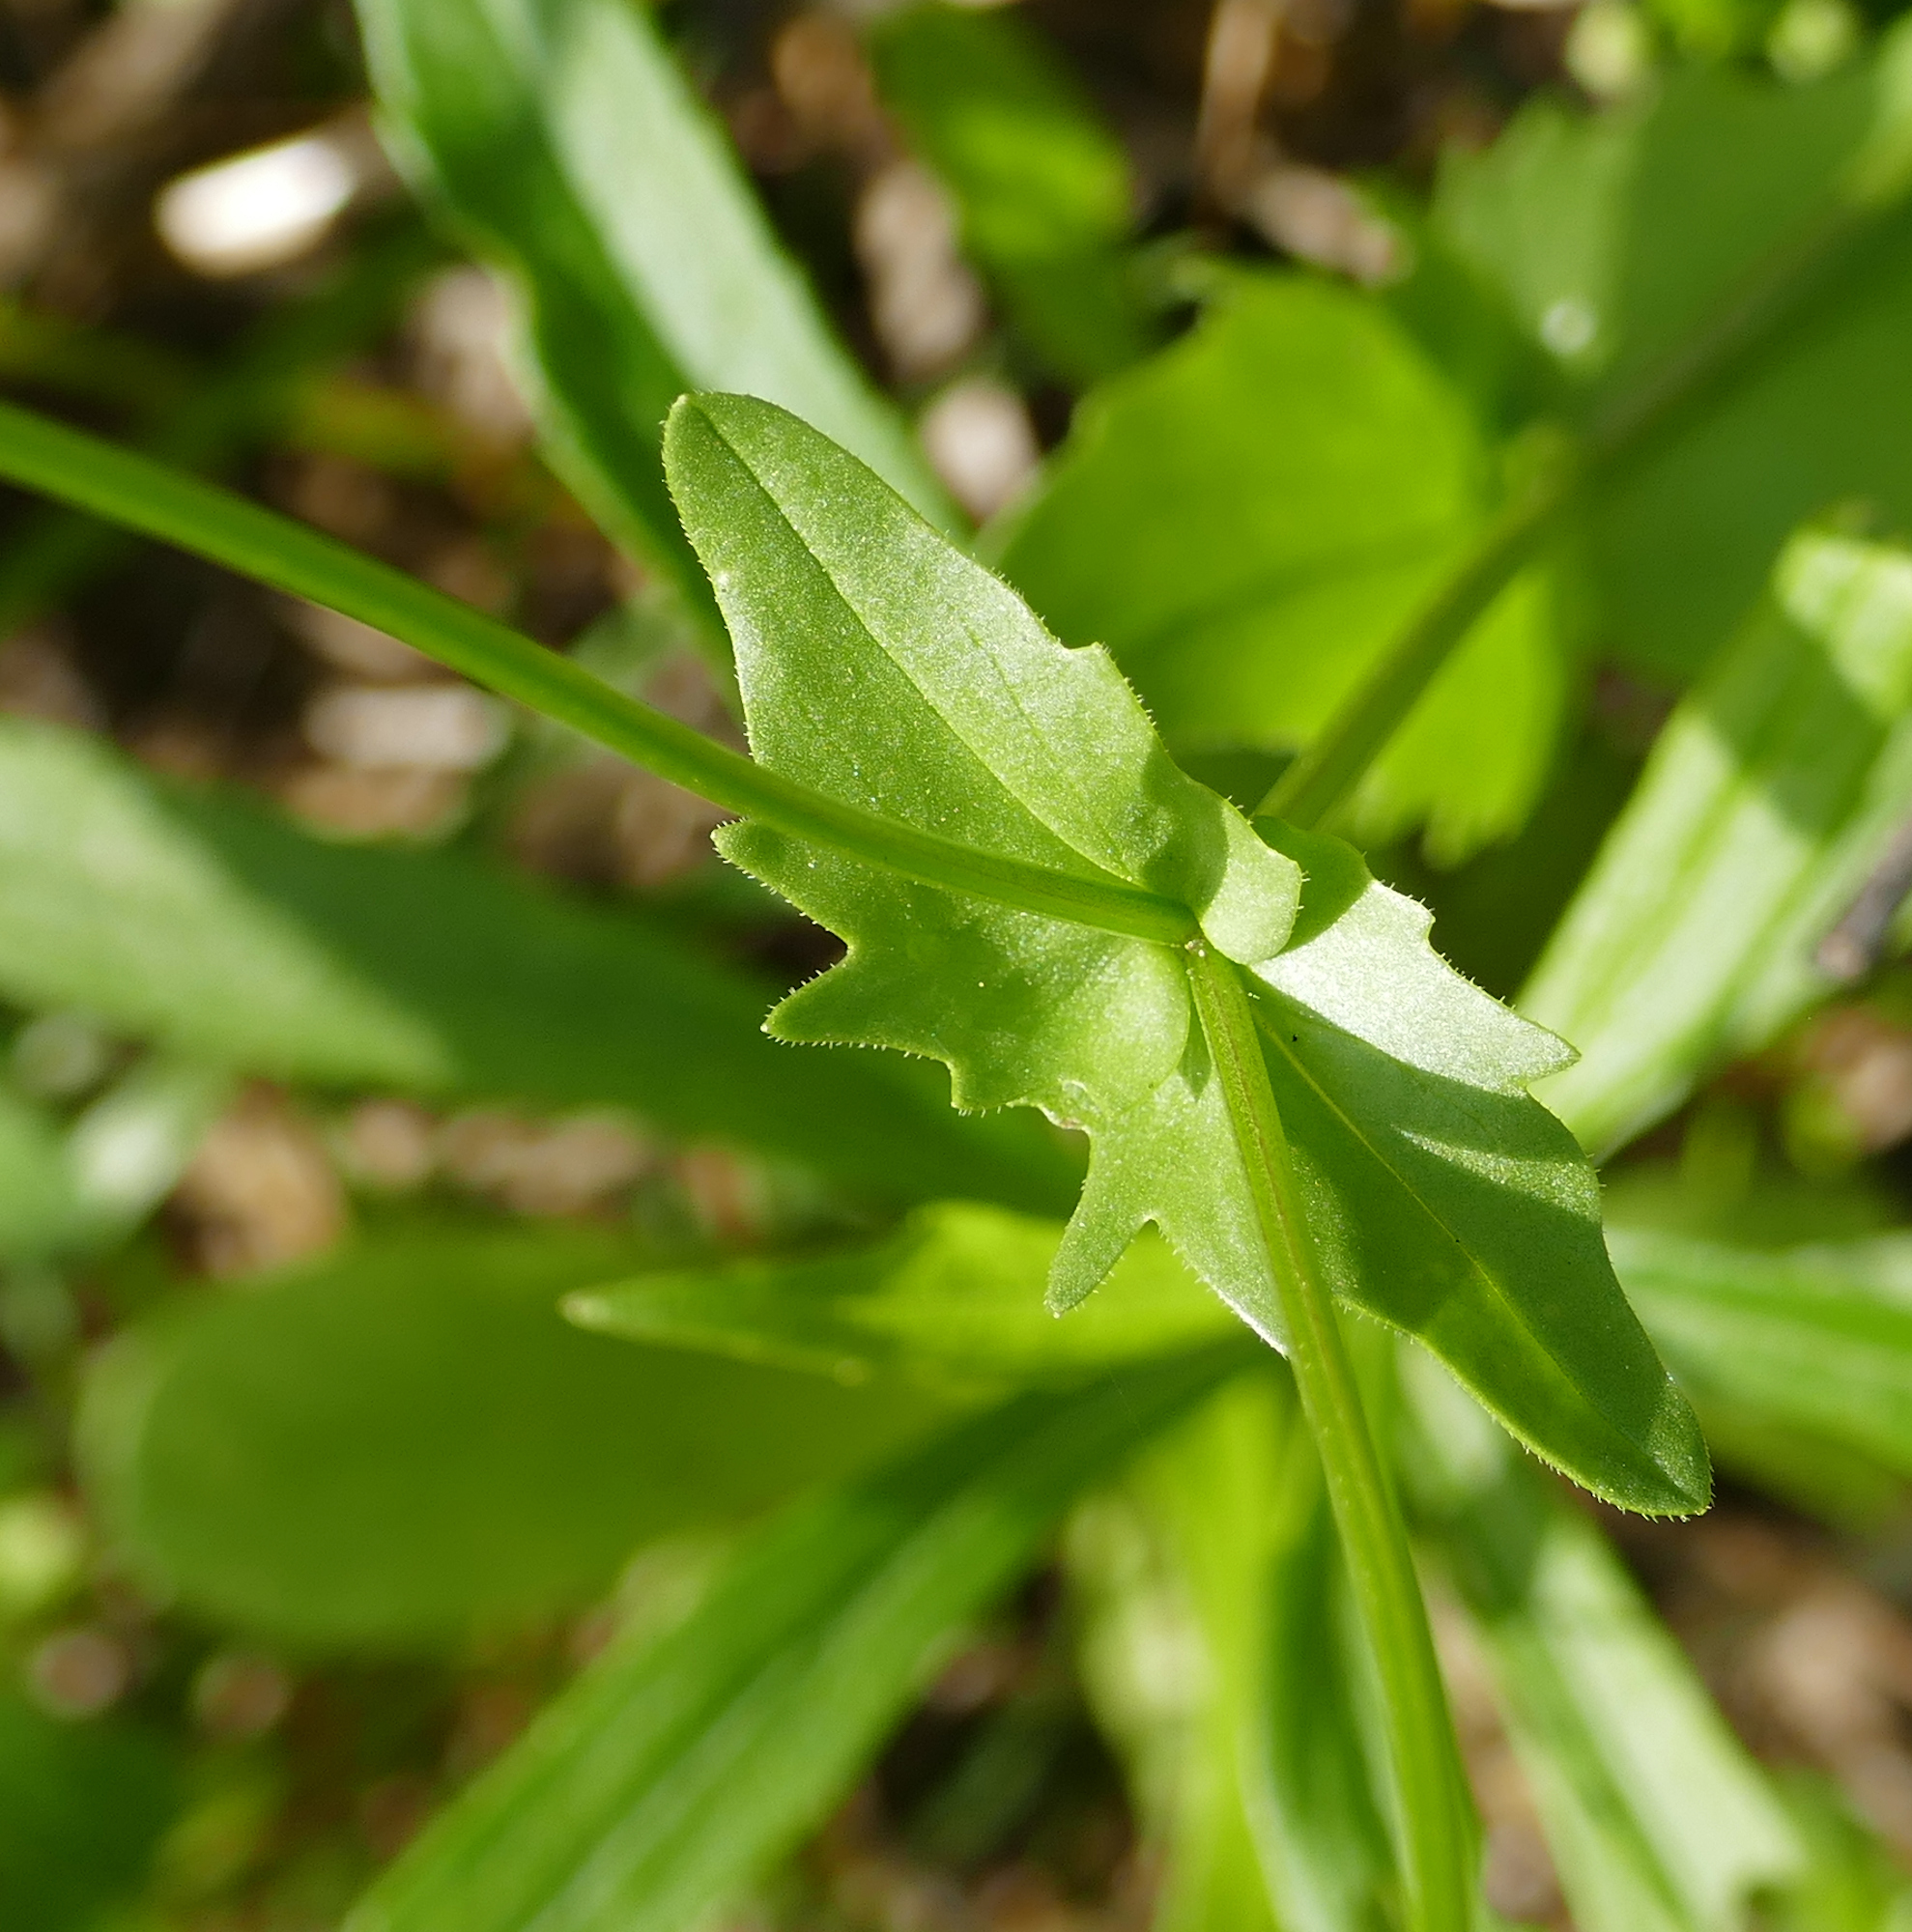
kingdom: Plantae
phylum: Tracheophyta
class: Magnoliopsida
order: Dipsacales
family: Caprifoliaceae
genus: Valerianella
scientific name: Valerianella radiata
